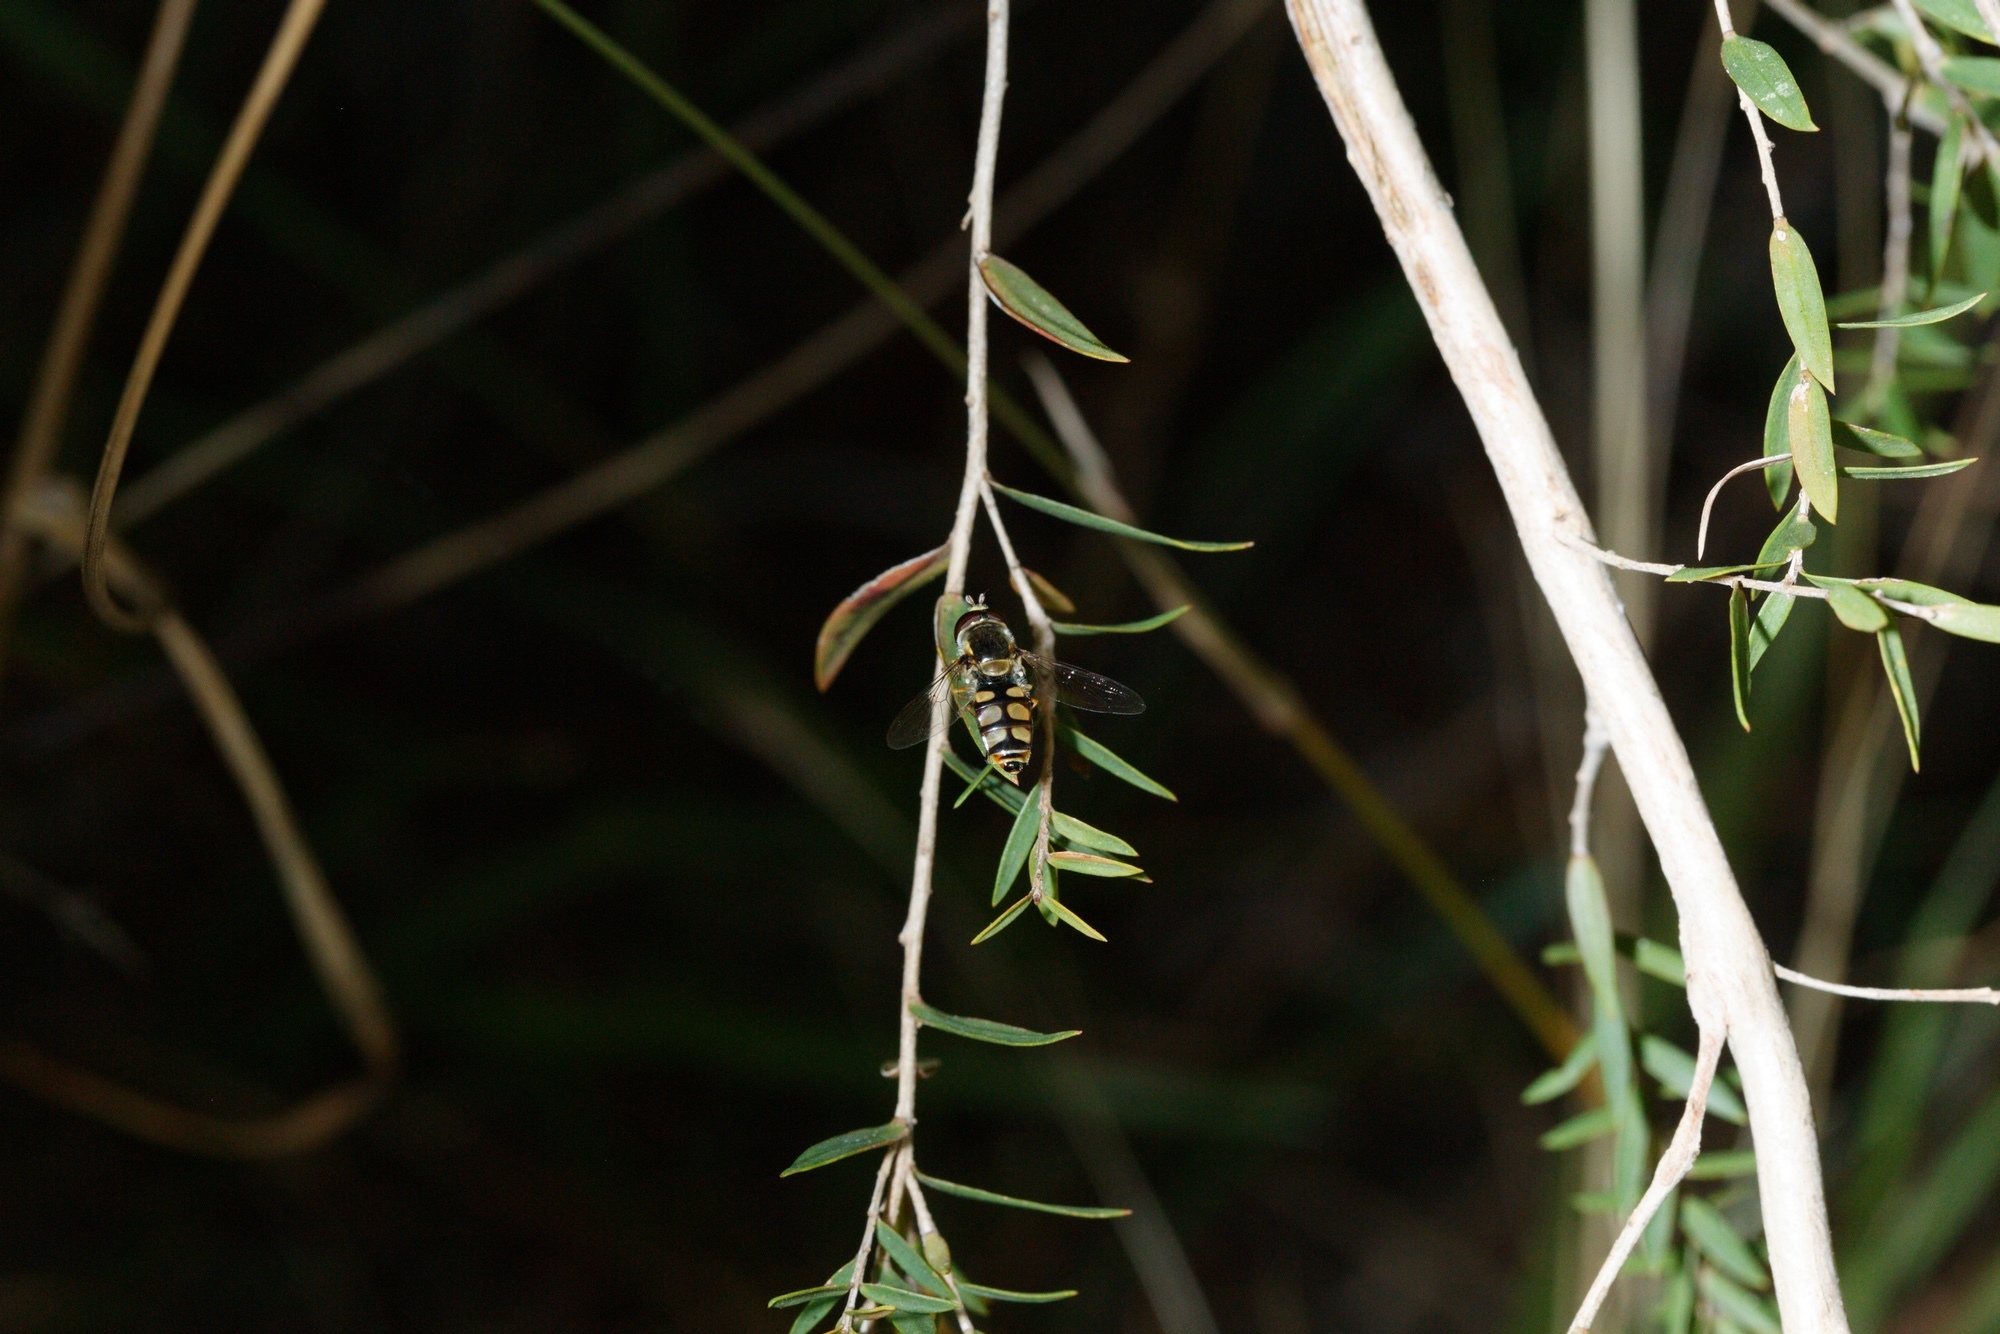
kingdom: Animalia
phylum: Arthropoda
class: Insecta
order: Diptera
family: Syrphidae
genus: Simosyrphus
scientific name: Simosyrphus grandicornis
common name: Hoverfly
